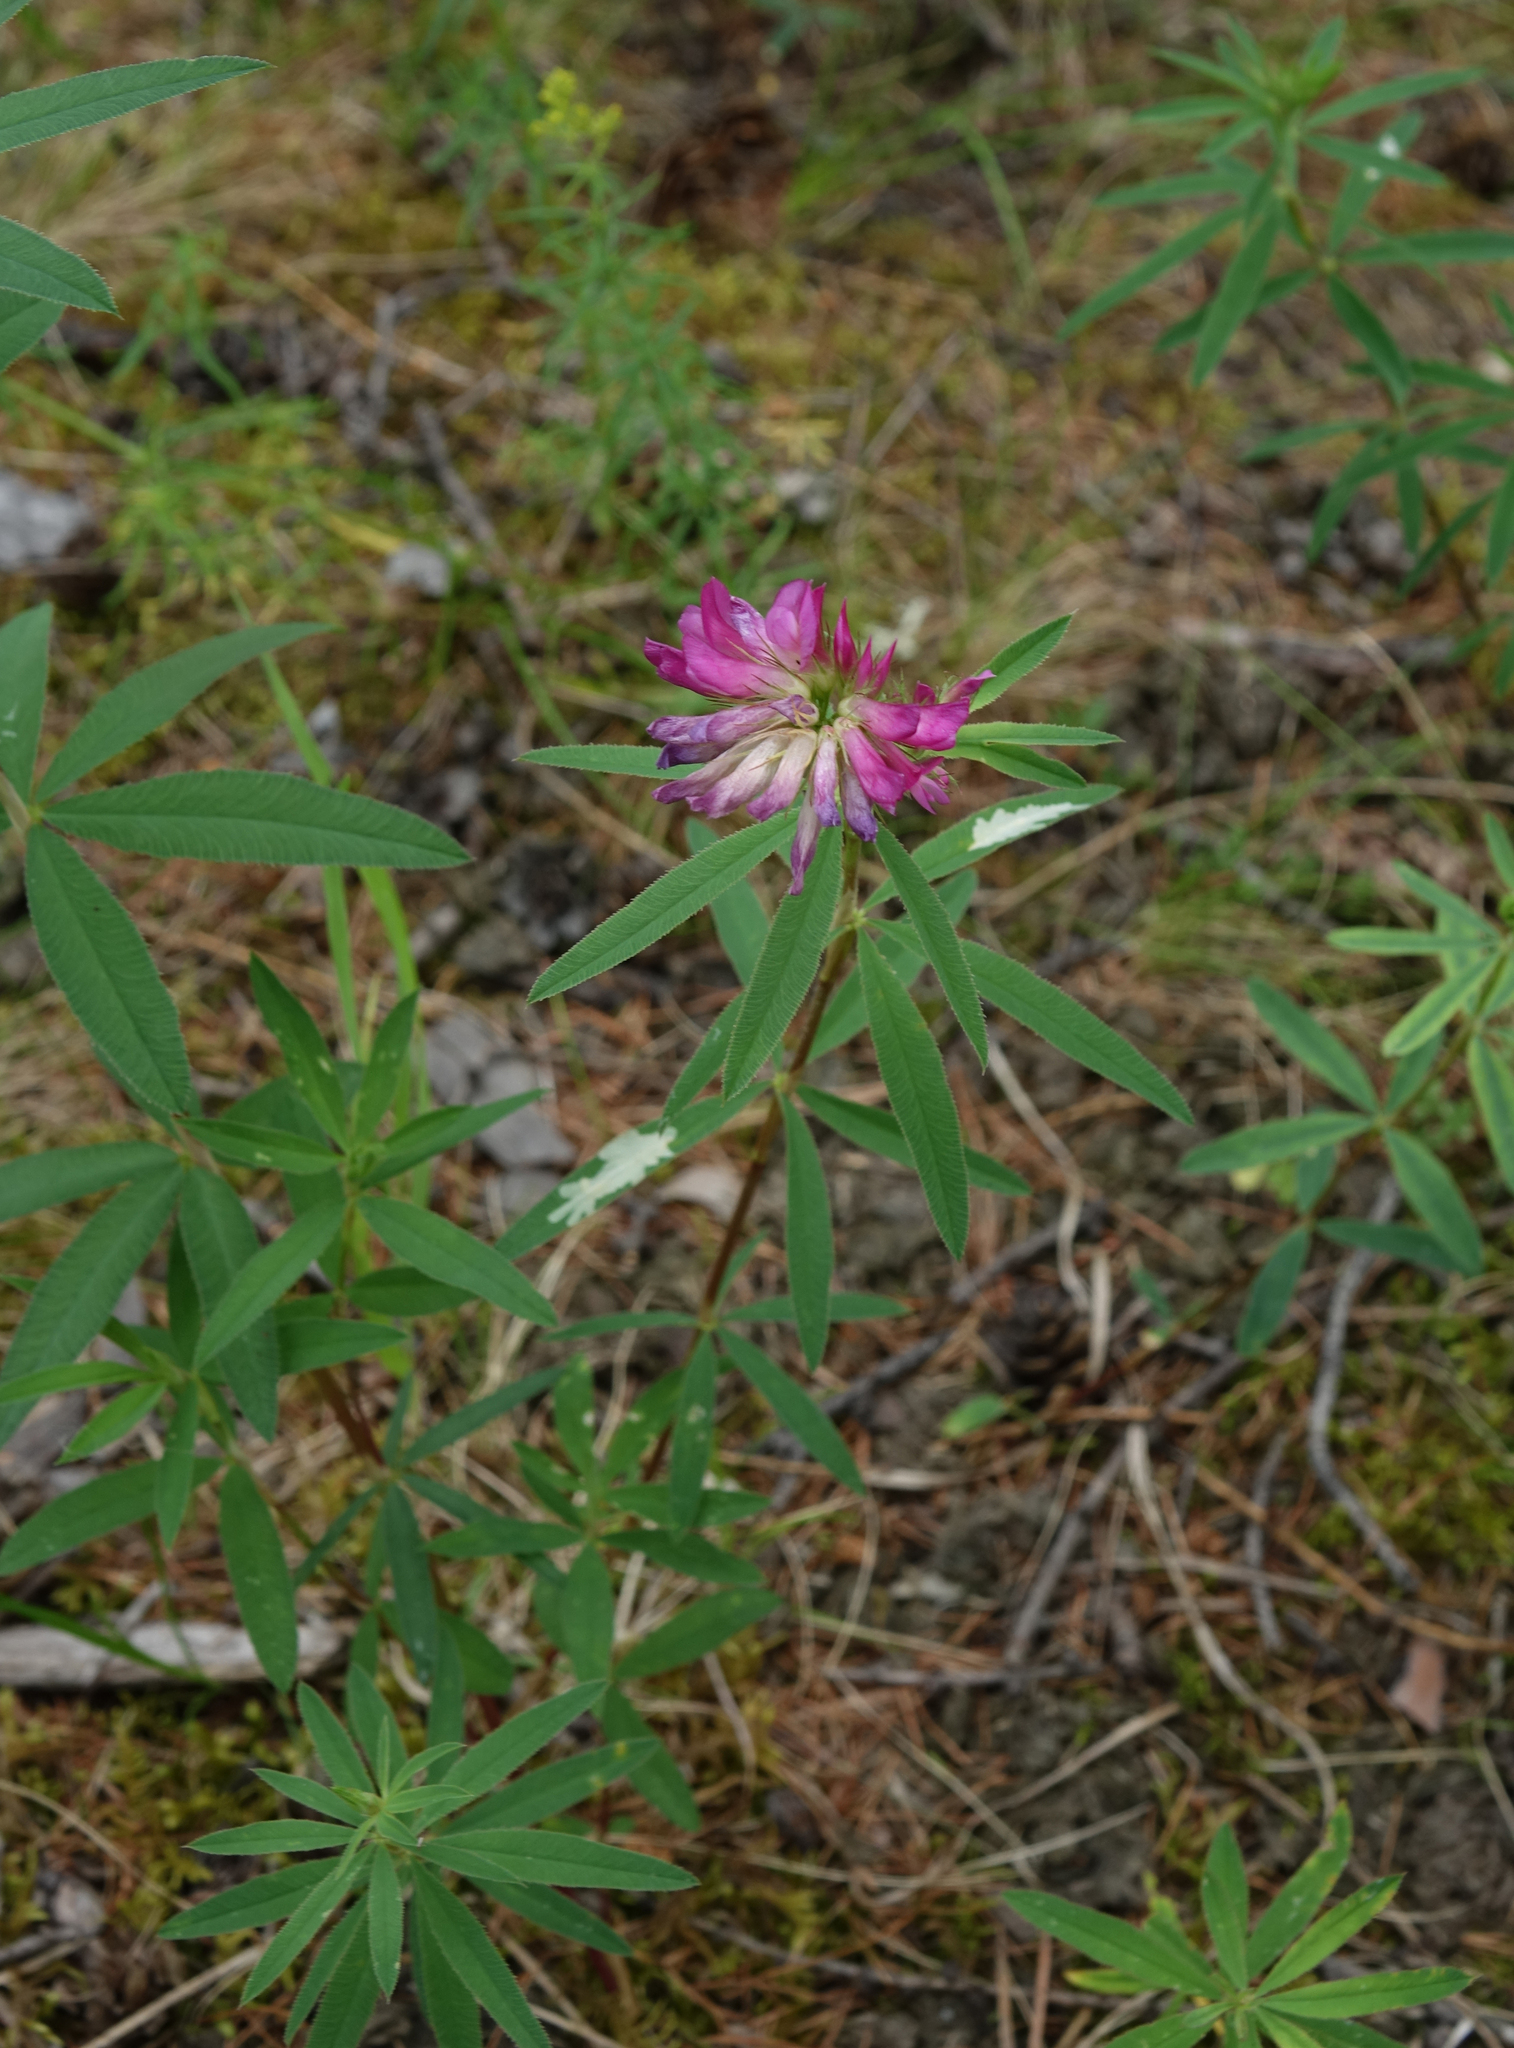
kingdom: Plantae
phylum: Tracheophyta
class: Magnoliopsida
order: Fabales
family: Fabaceae
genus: Trifolium
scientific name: Trifolium lupinaster
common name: Lupine clover
